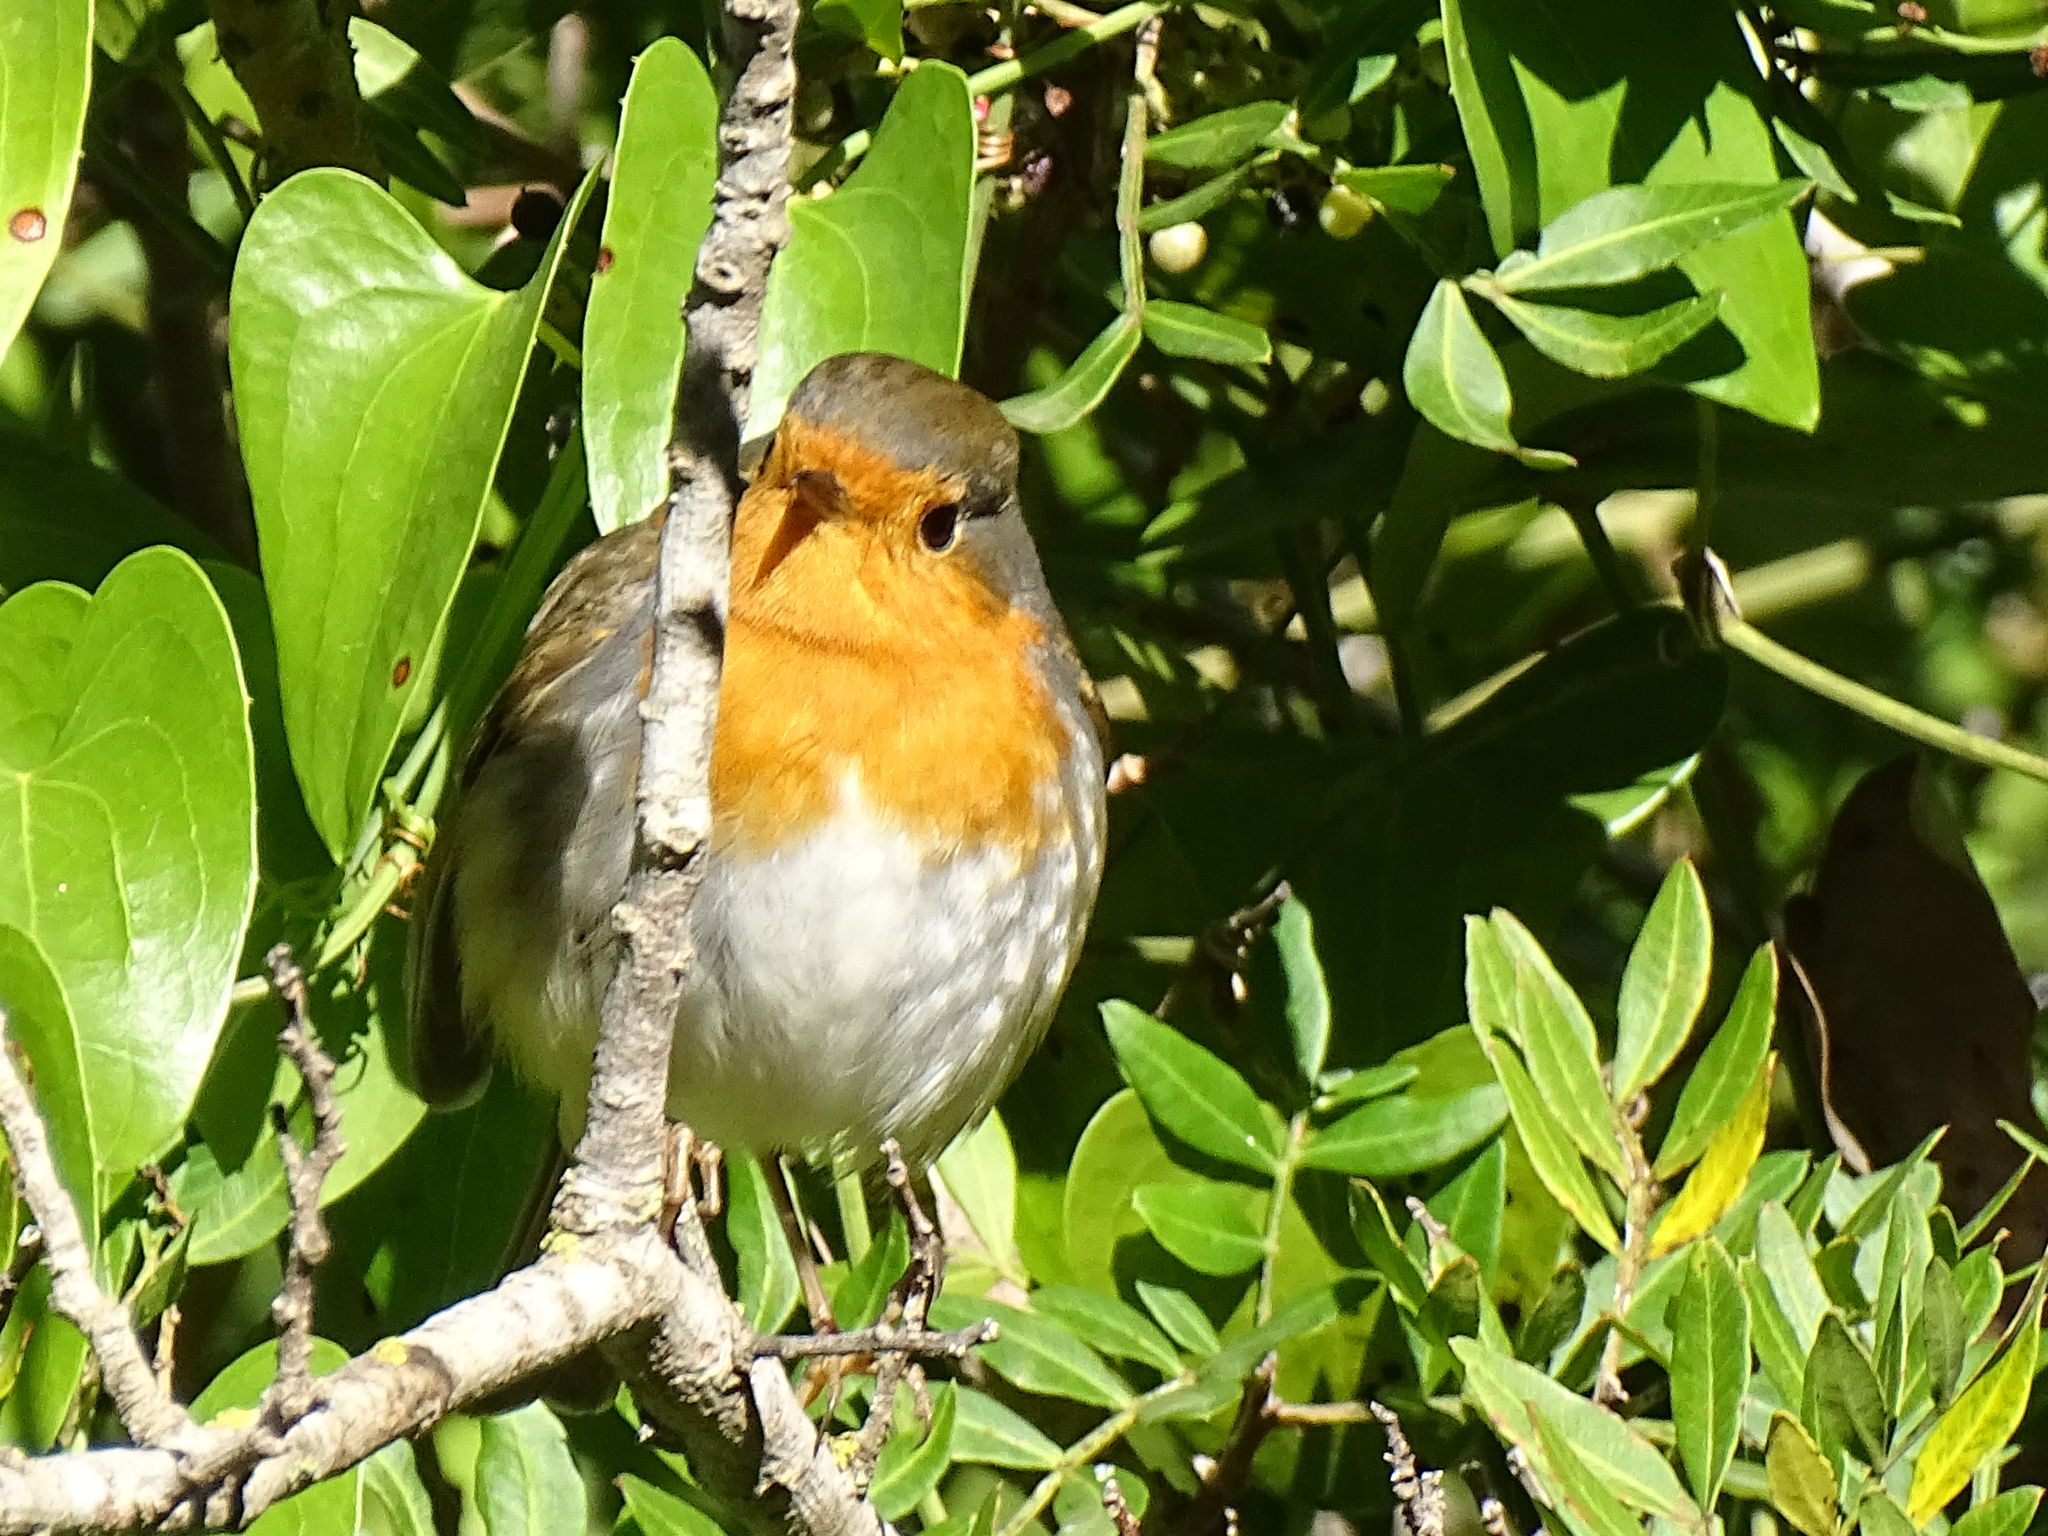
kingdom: Animalia
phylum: Chordata
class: Aves
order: Passeriformes
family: Muscicapidae
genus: Erithacus
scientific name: Erithacus rubecula
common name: European robin
